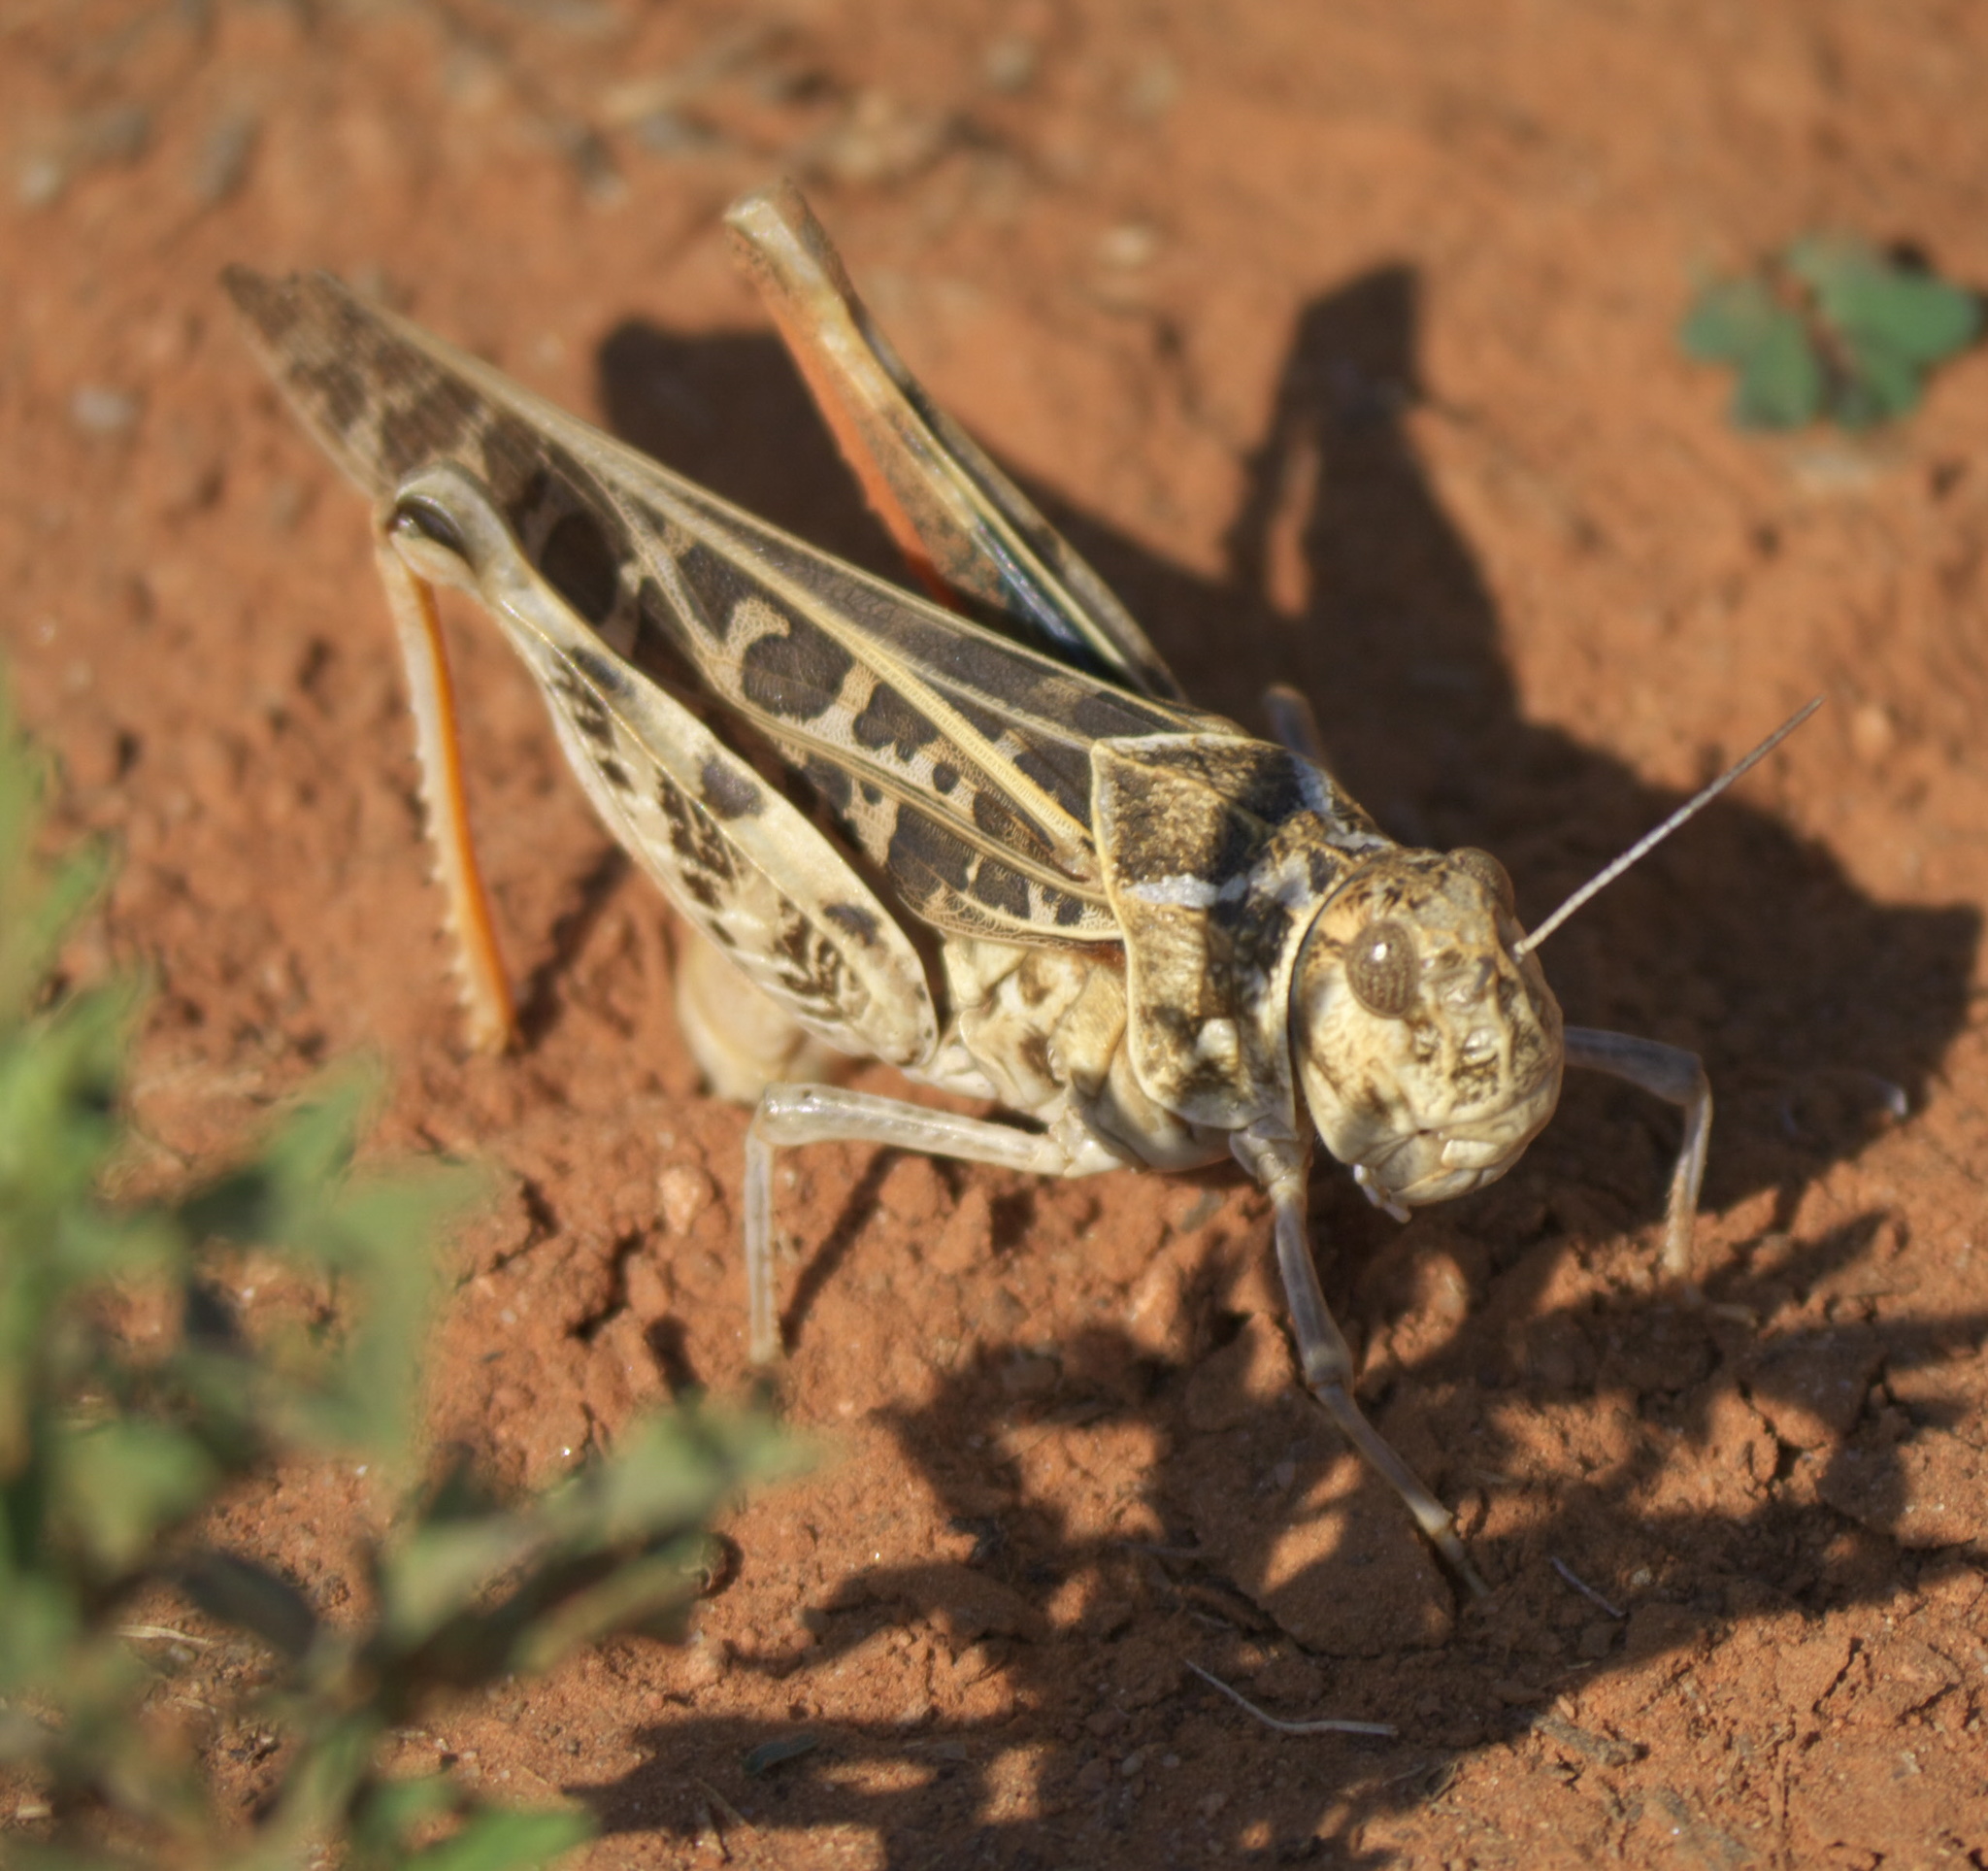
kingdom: Animalia
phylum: Arthropoda
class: Insecta
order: Orthoptera
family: Acrididae
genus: Xanthippus
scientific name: Xanthippus corallipes
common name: Redshanked grasshopper
